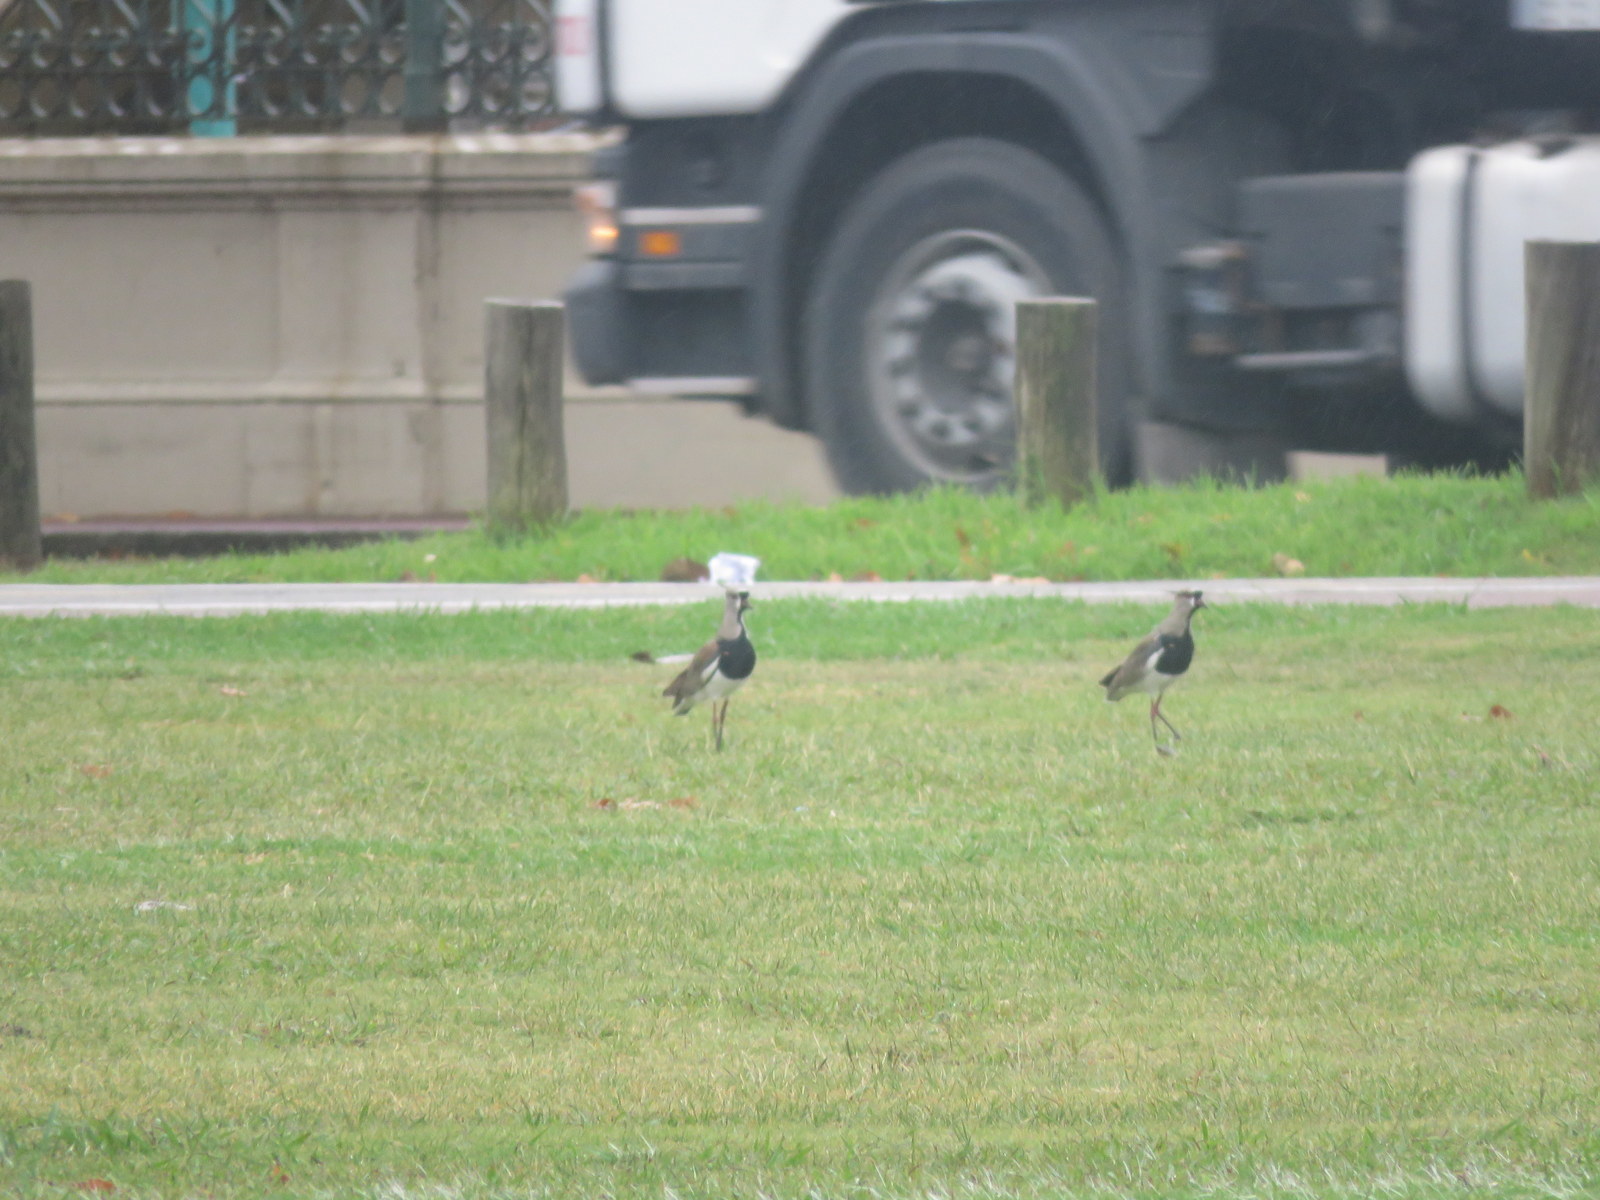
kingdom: Animalia
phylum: Chordata
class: Aves
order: Charadriiformes
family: Charadriidae
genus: Vanellus
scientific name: Vanellus chilensis
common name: Southern lapwing
